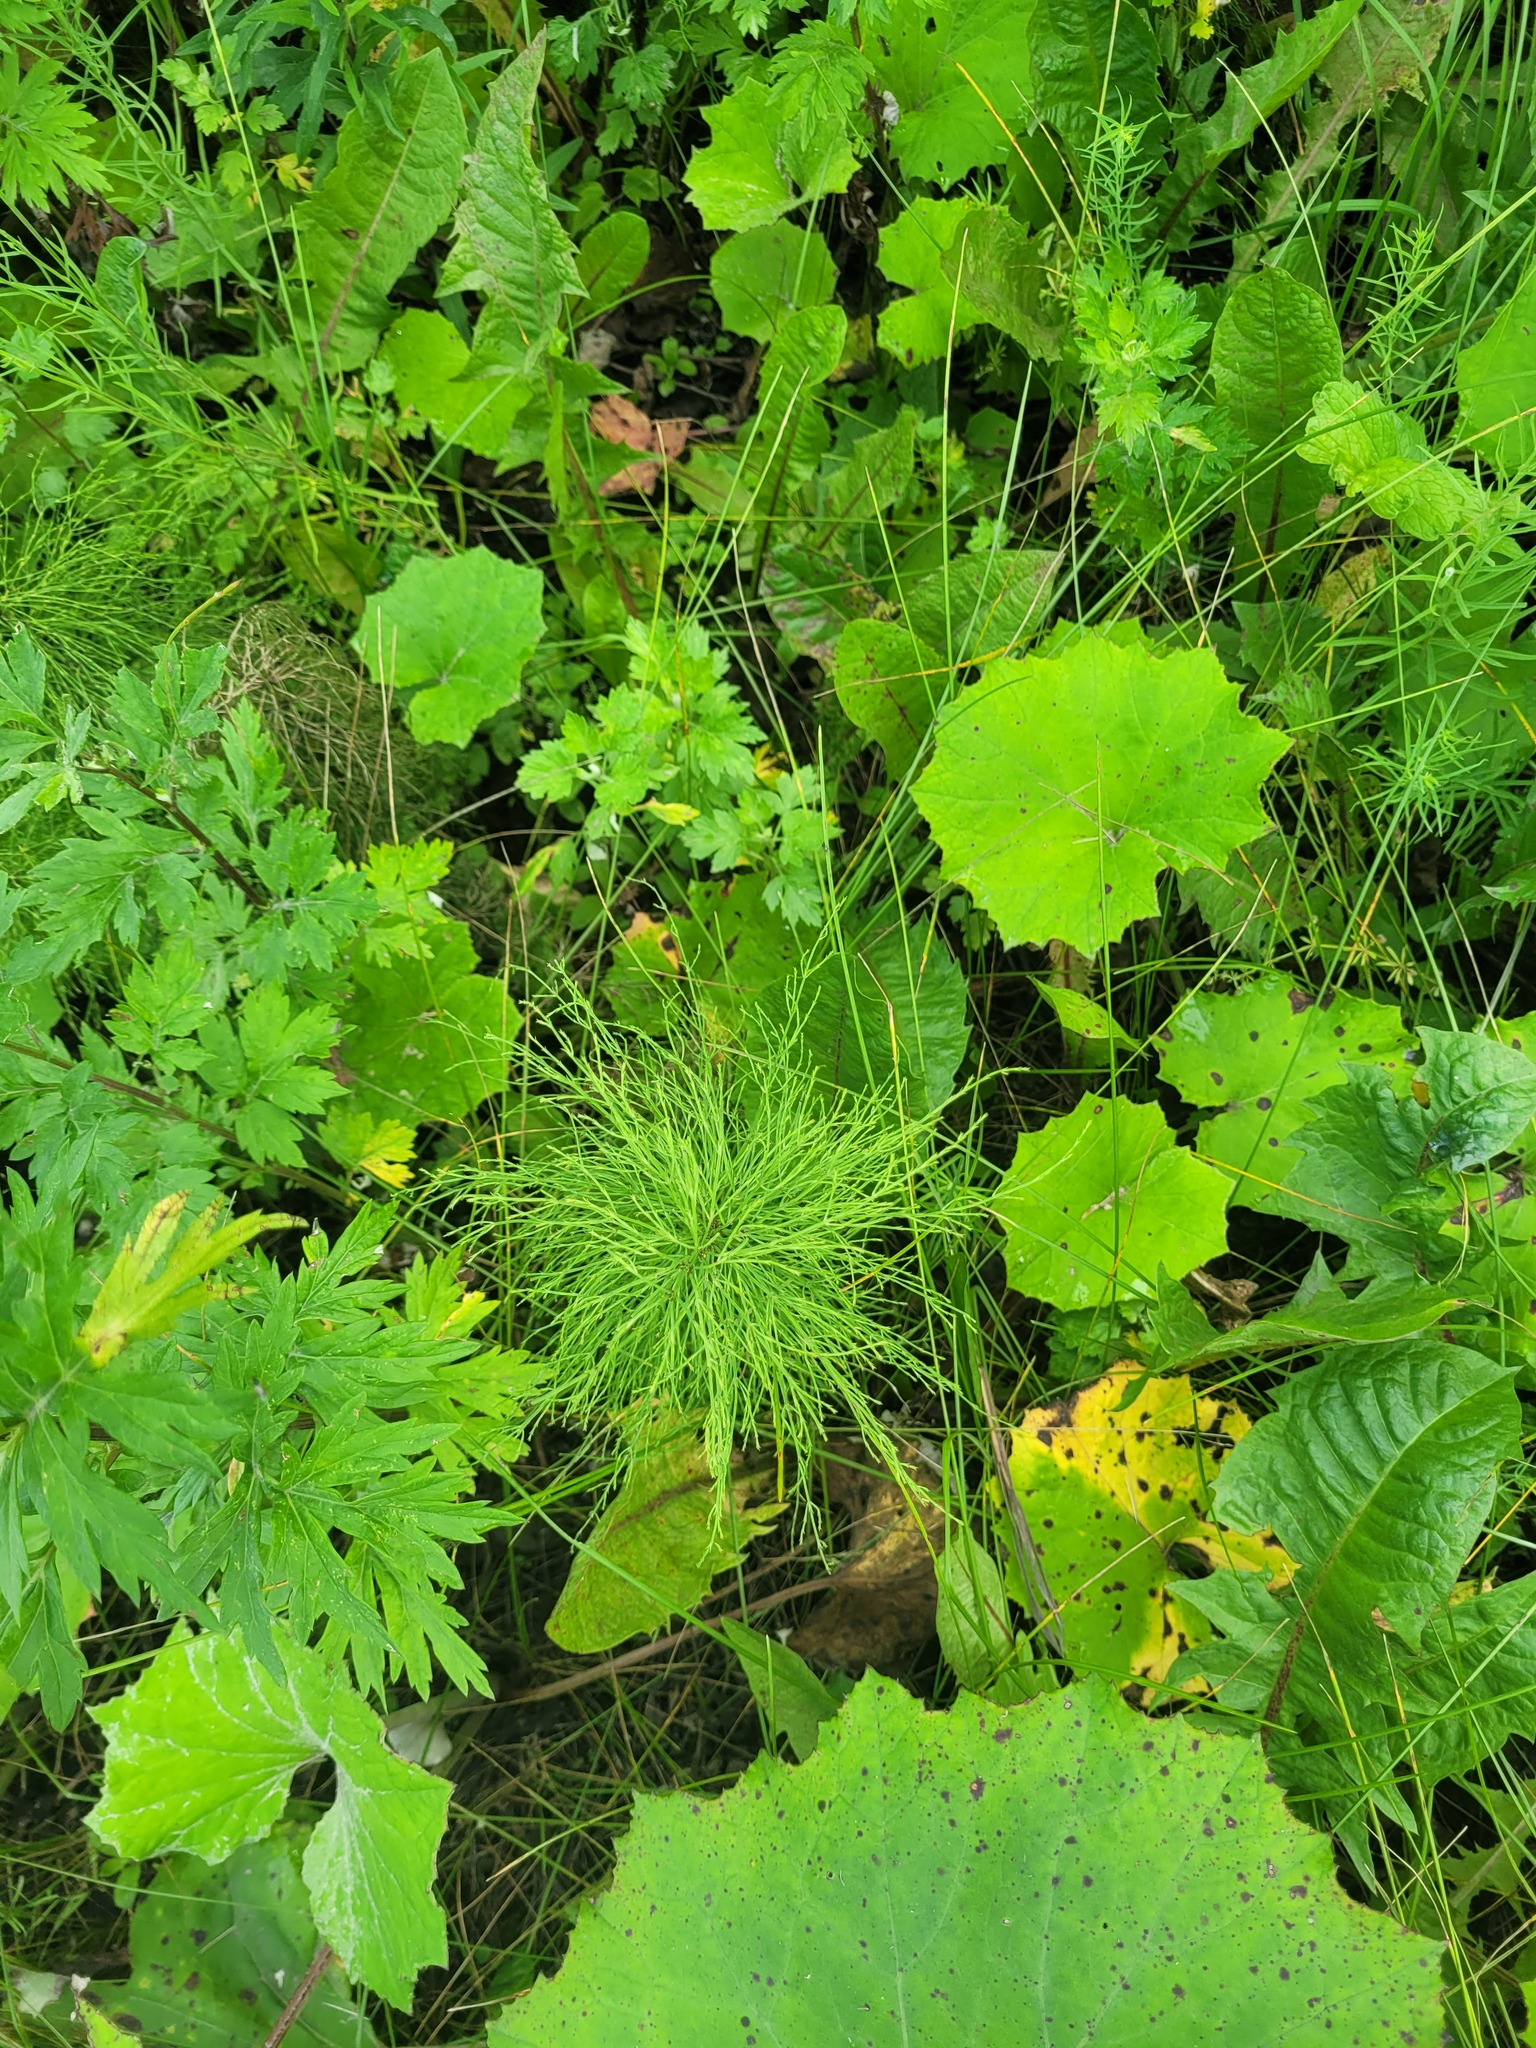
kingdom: Plantae
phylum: Tracheophyta
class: Polypodiopsida
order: Equisetales
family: Equisetaceae
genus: Equisetum
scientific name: Equisetum sylvaticum
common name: Wood horsetail
